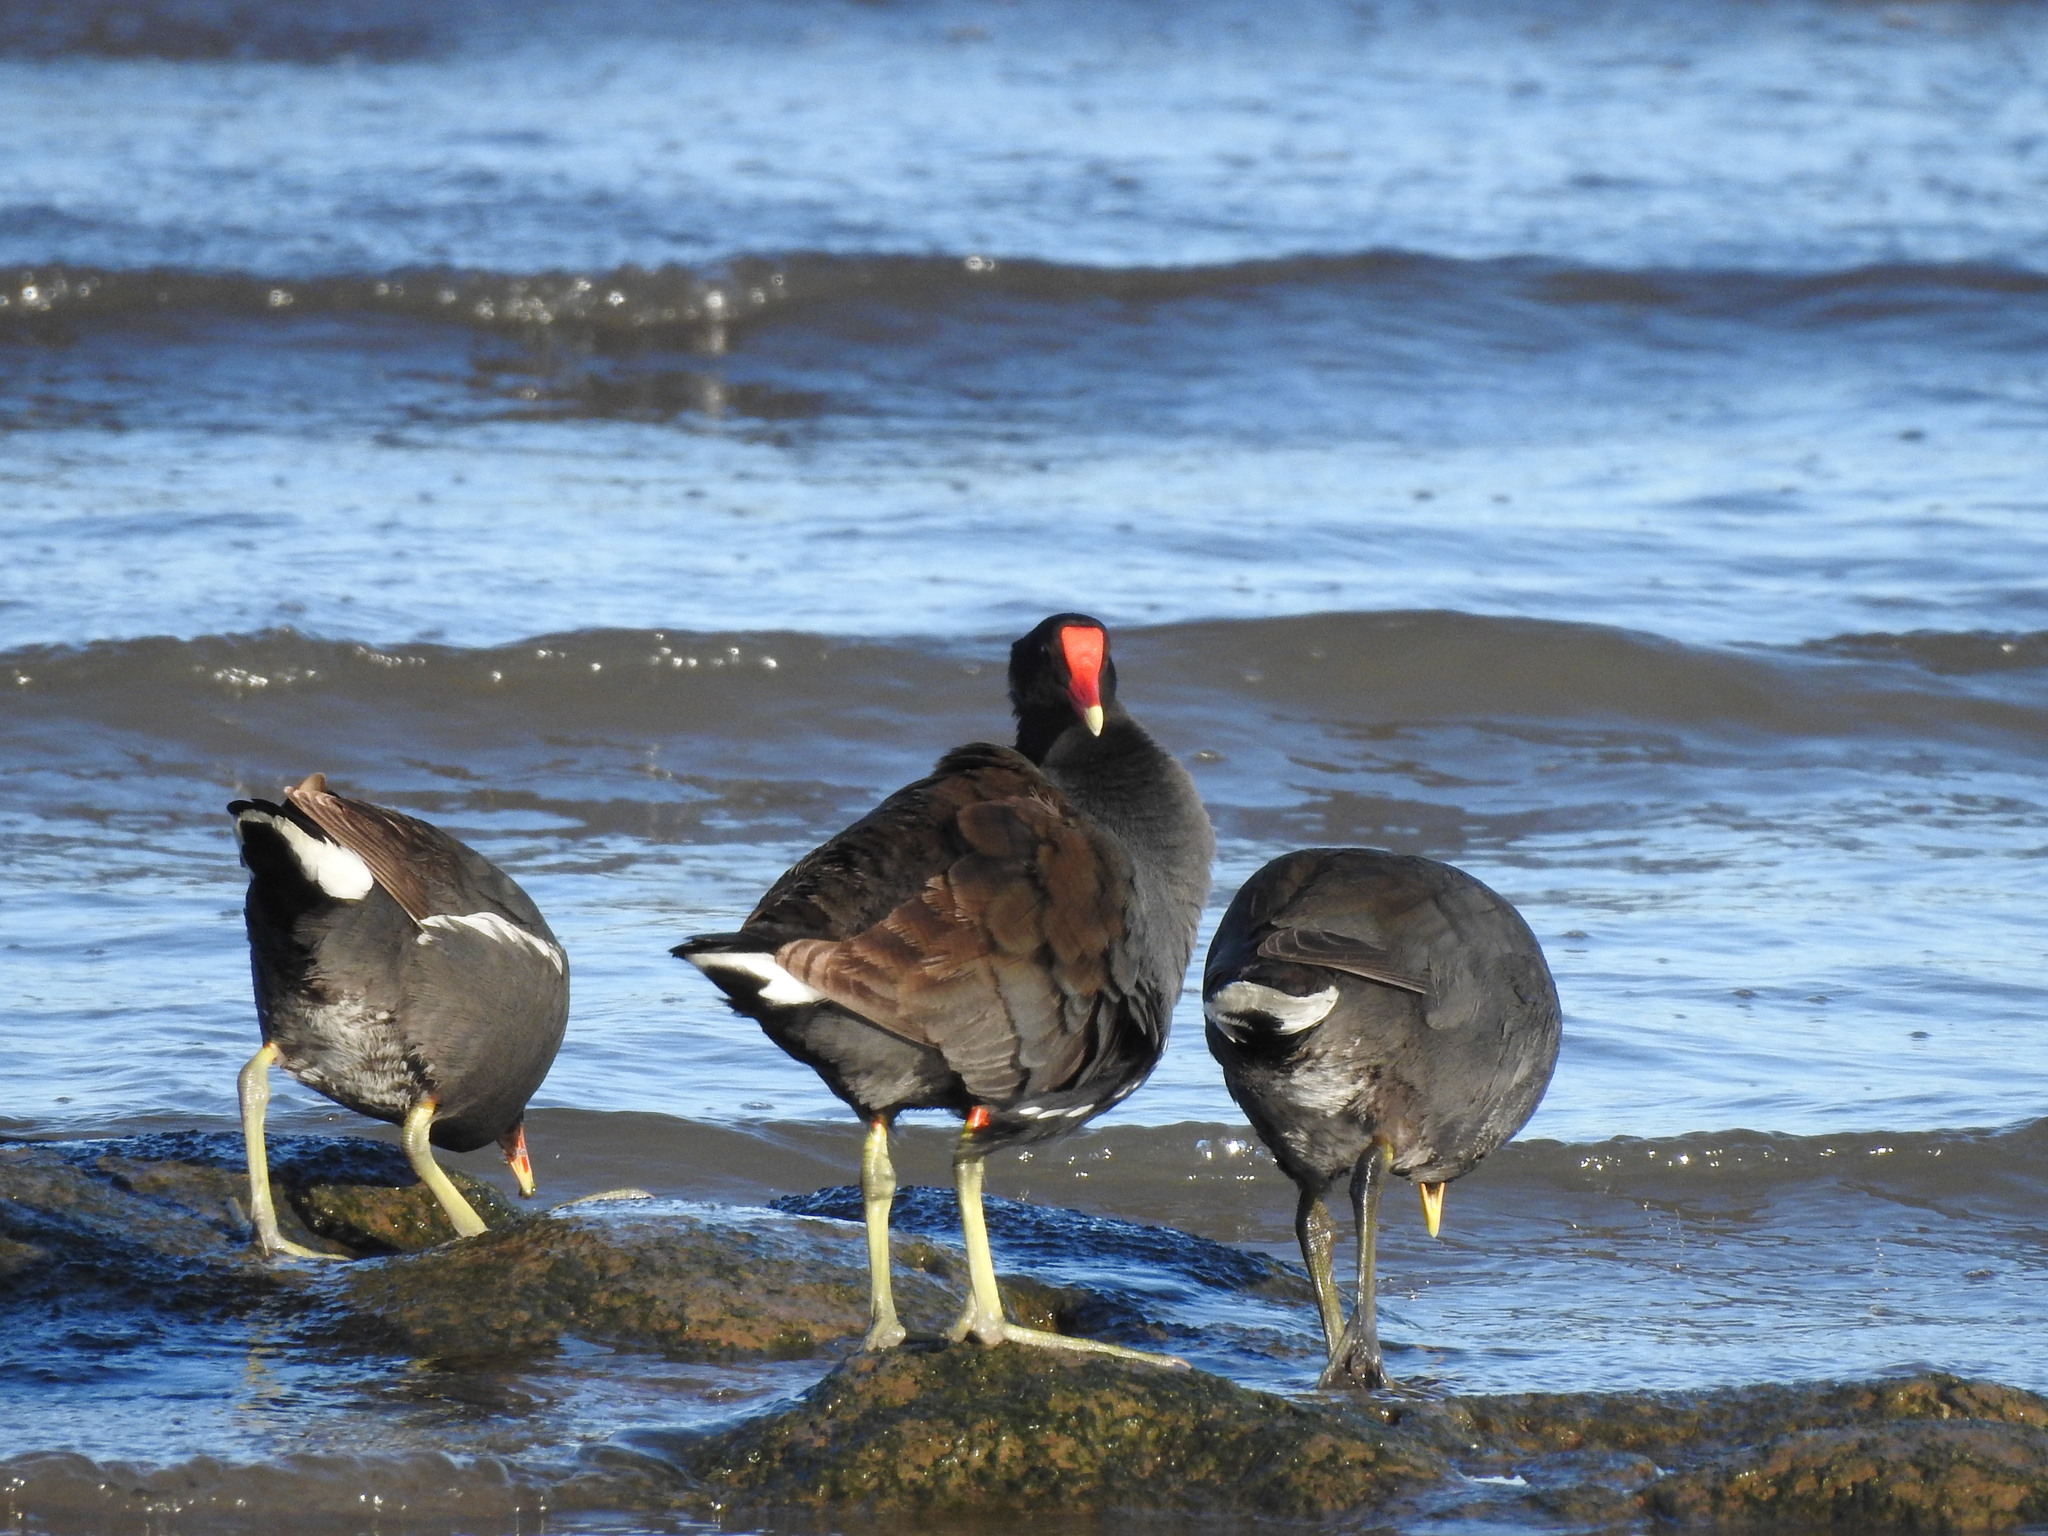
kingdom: Animalia
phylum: Chordata
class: Aves
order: Gruiformes
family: Rallidae
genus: Gallinula
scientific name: Gallinula chloropus
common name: Common moorhen
